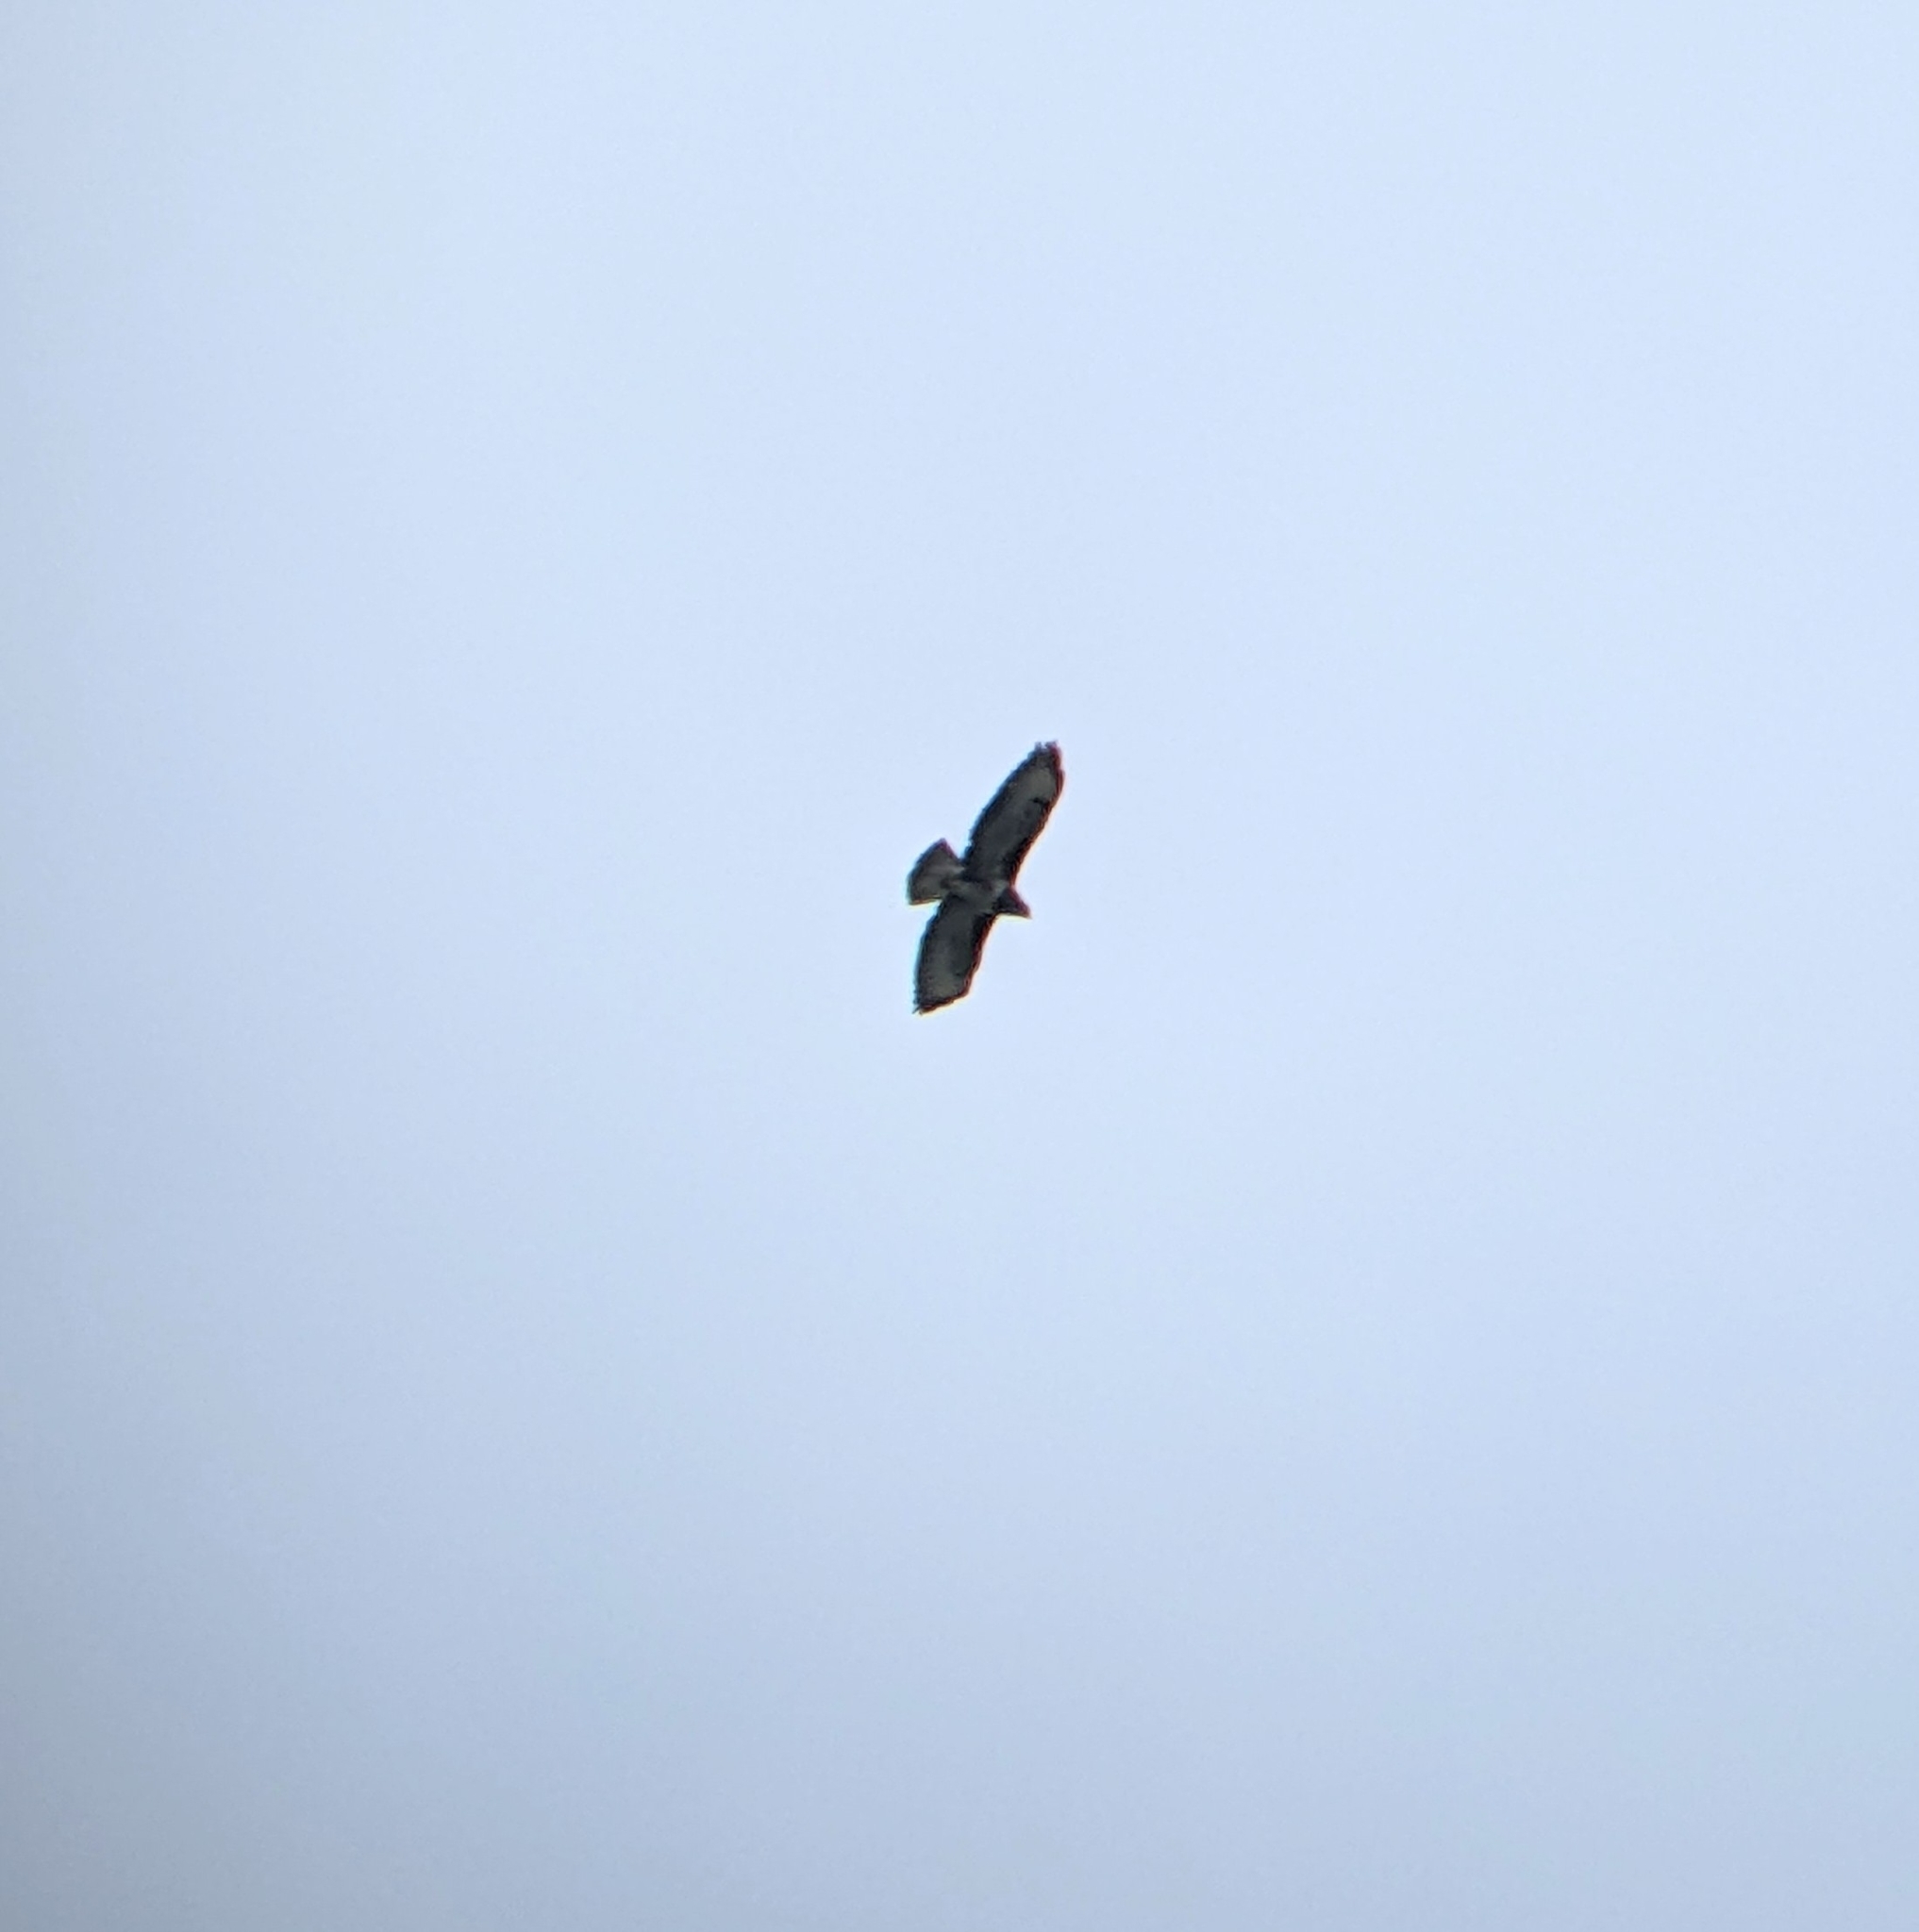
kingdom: Animalia
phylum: Chordata
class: Aves
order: Accipitriformes
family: Accipitridae
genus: Buteo
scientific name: Buteo buteo
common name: Common buzzard
